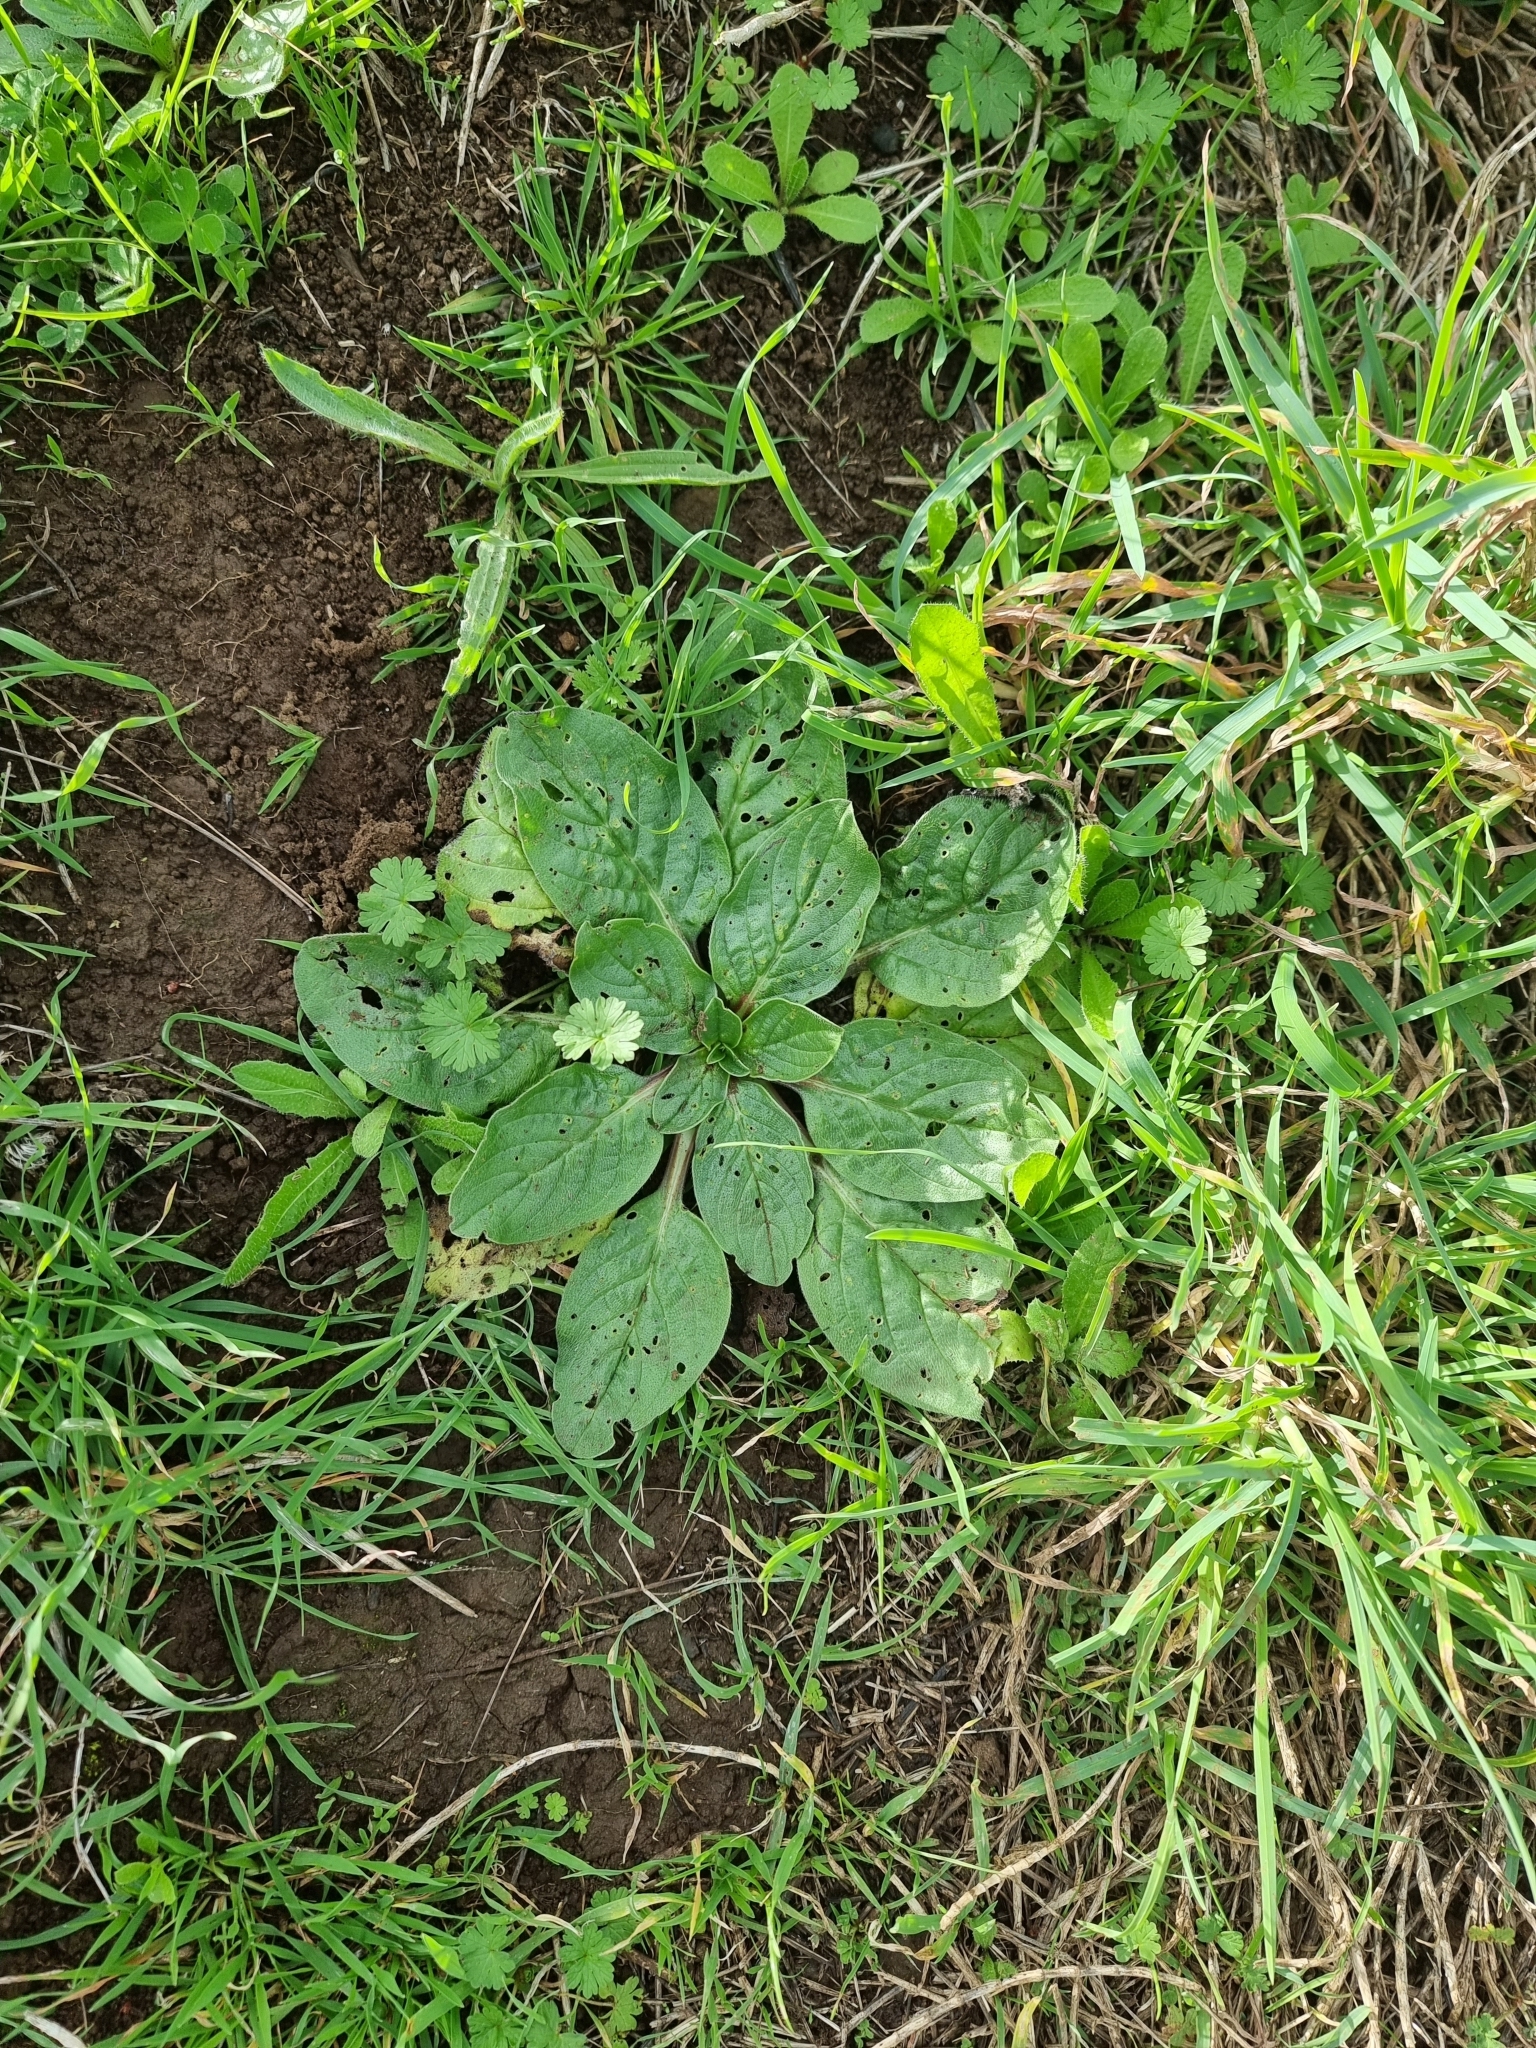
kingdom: Plantae
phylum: Tracheophyta
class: Magnoliopsida
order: Lamiales
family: Plantaginaceae
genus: Plantago
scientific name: Plantago major
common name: Common plantain
